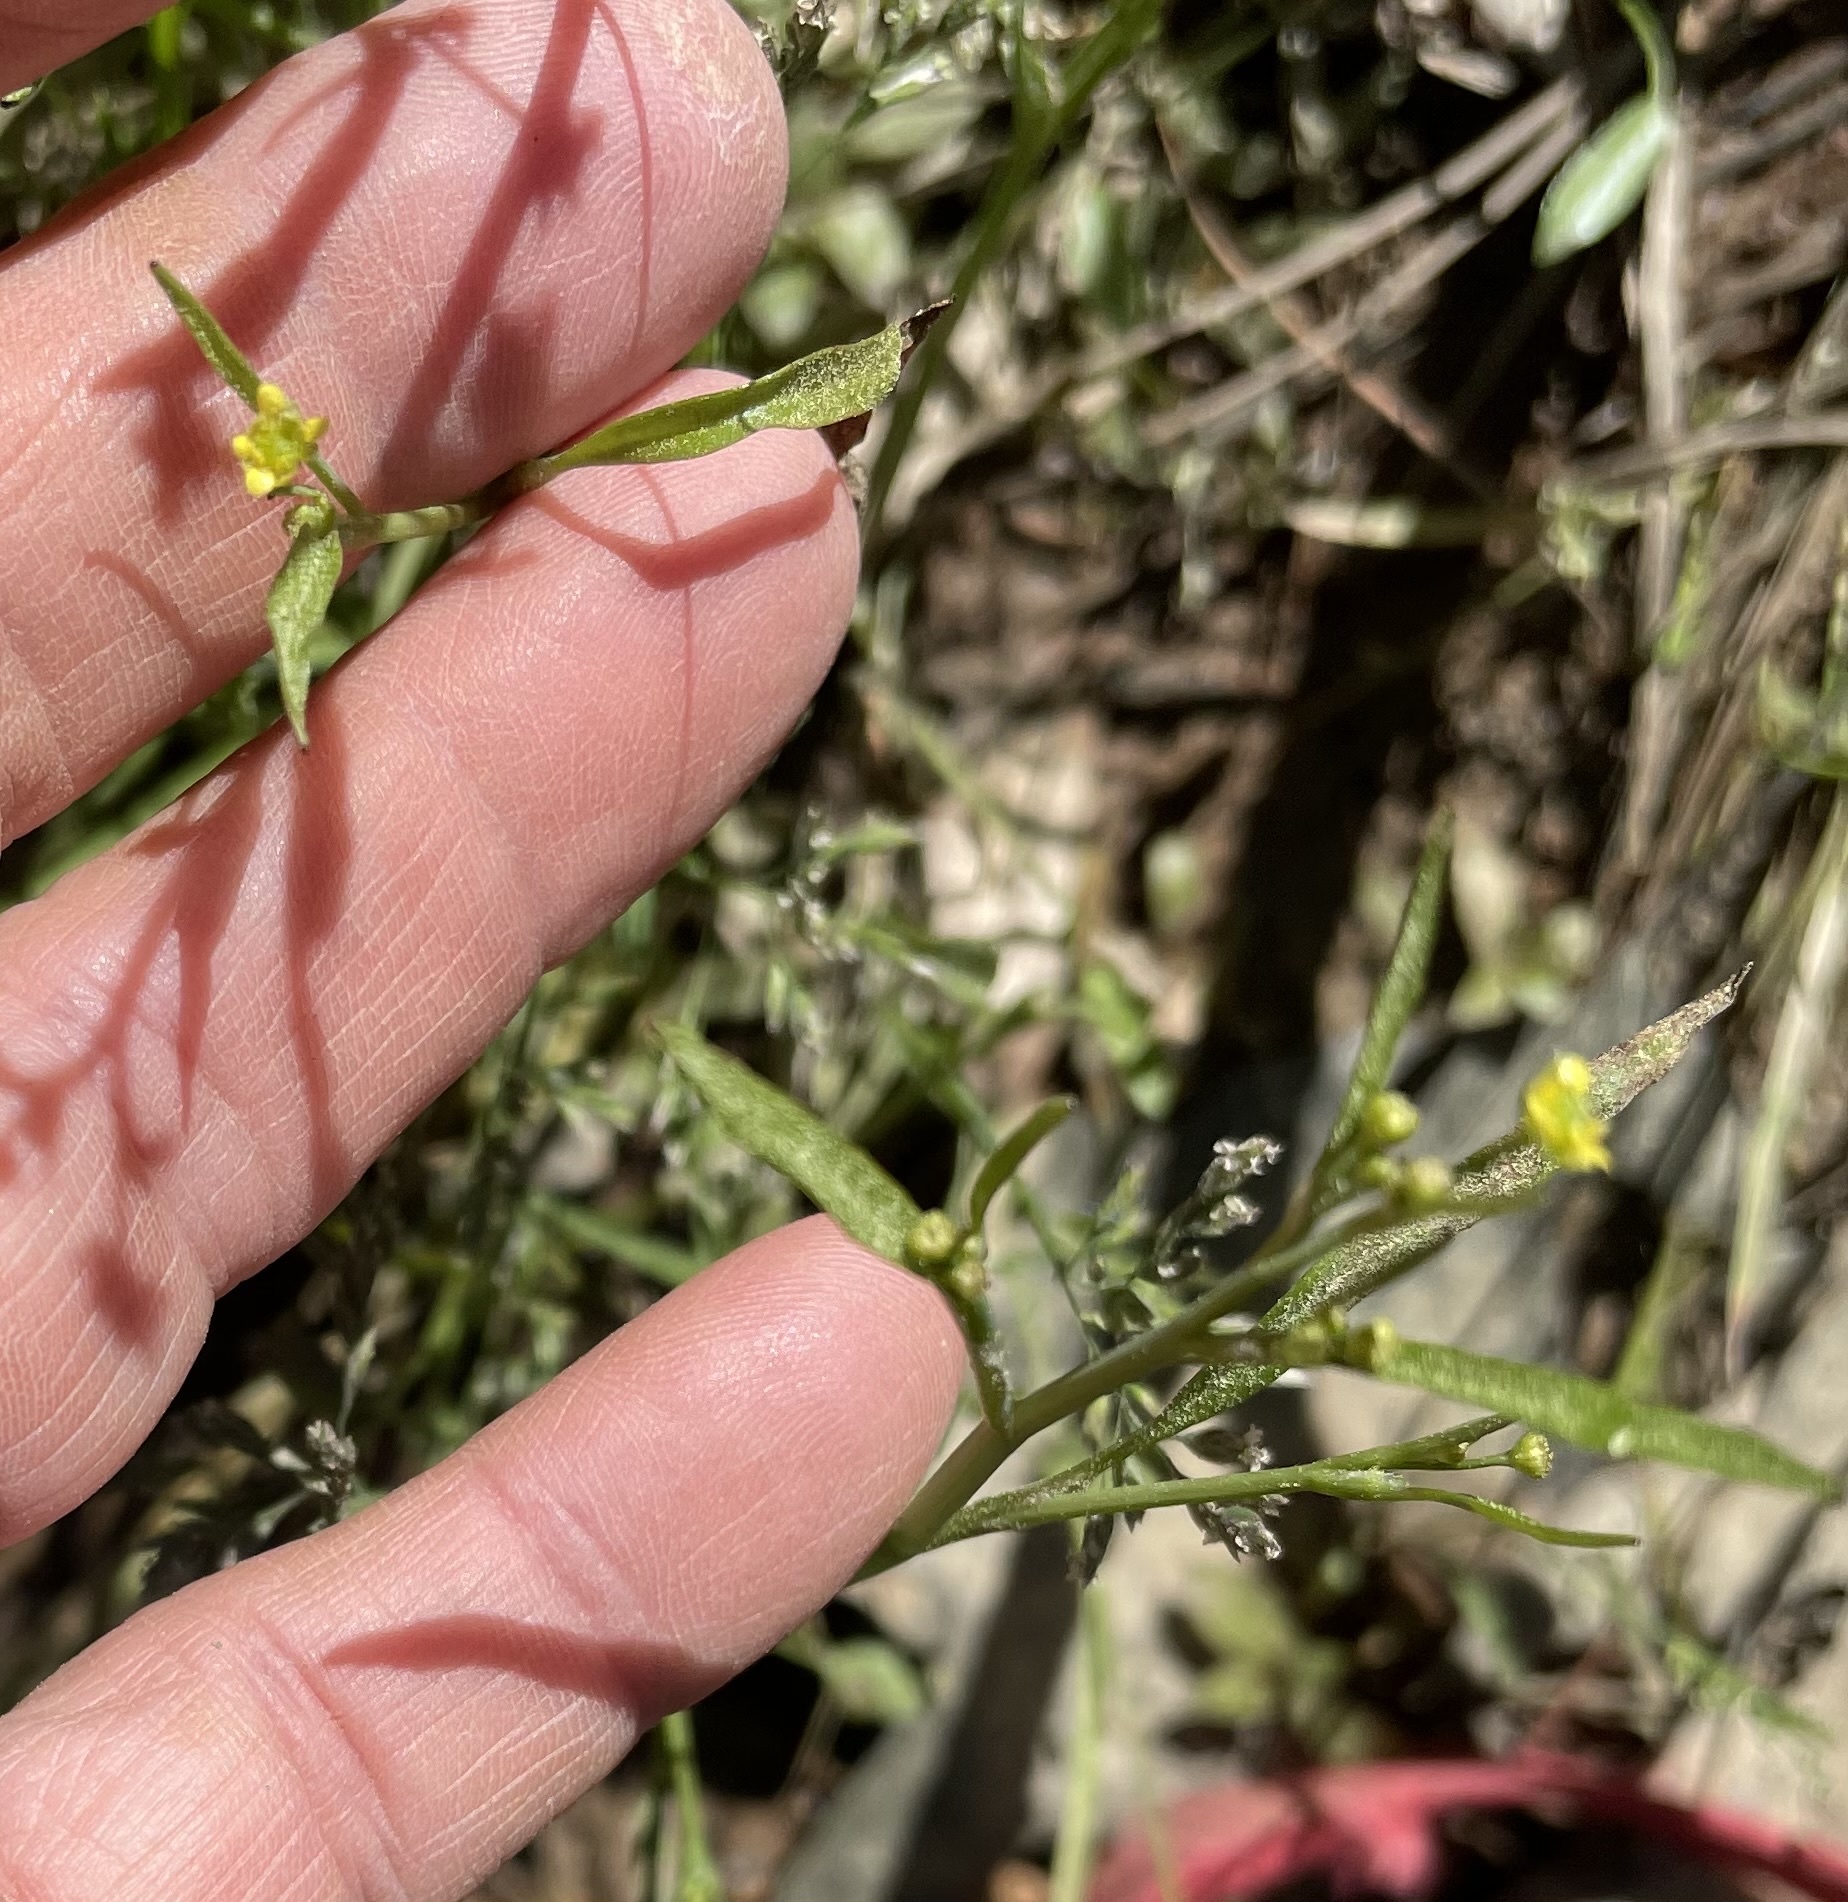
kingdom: Plantae
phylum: Tracheophyta
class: Magnoliopsida
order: Ranunculales
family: Ranunculaceae
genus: Ranunculus
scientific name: Ranunculus pusillus
